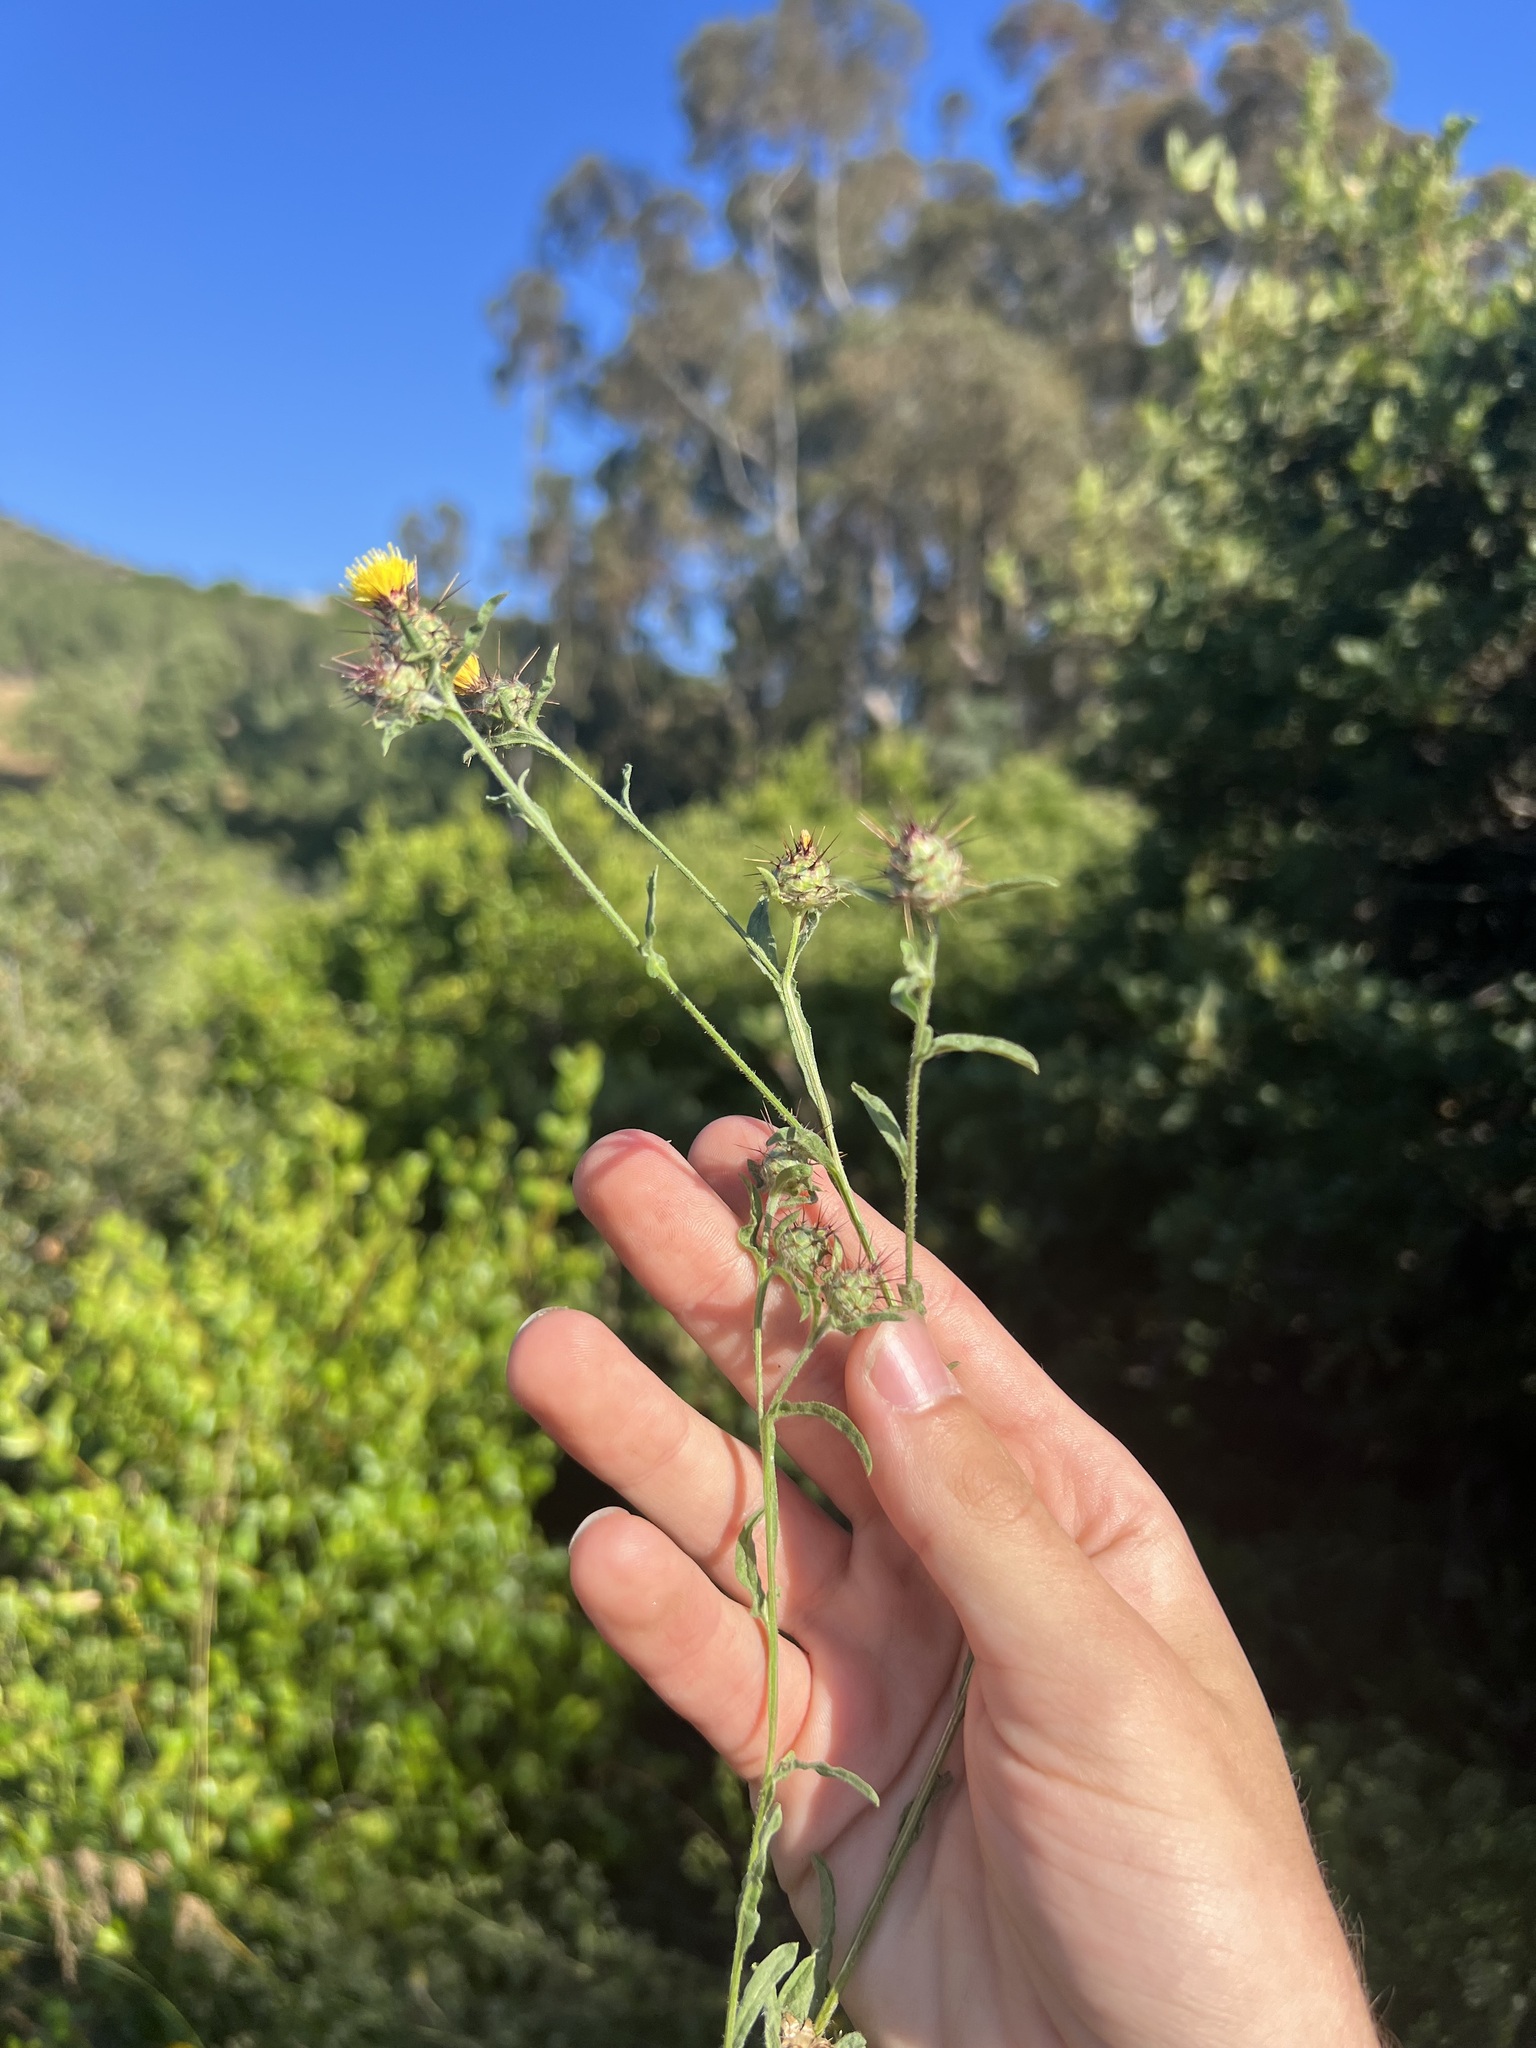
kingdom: Plantae
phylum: Tracheophyta
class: Magnoliopsida
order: Asterales
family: Asteraceae
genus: Centaurea
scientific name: Centaurea melitensis
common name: Maltese star-thistle
